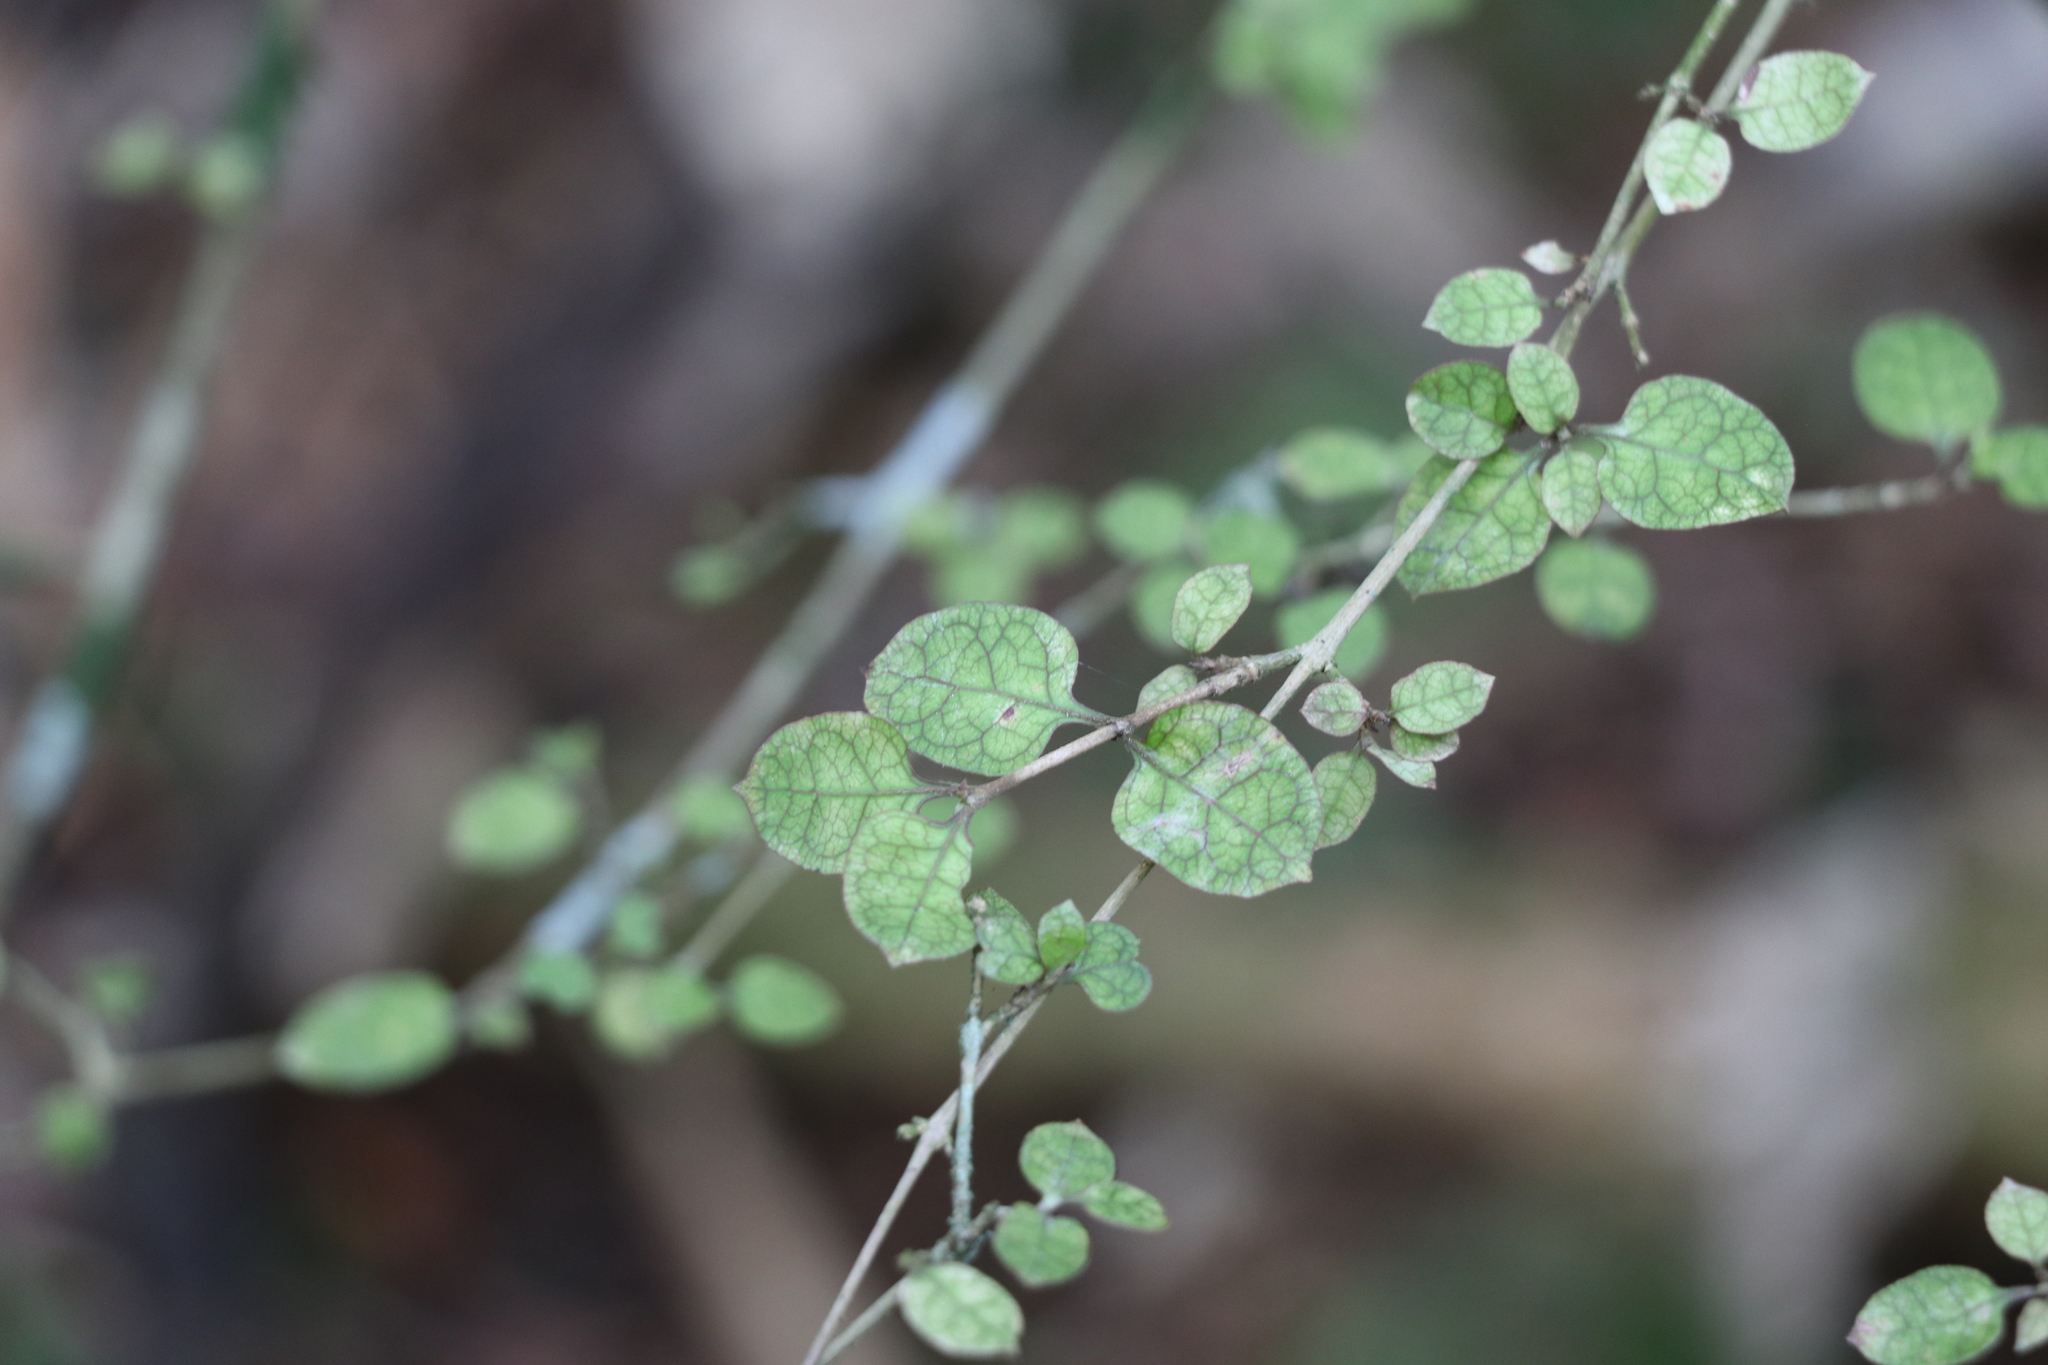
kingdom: Plantae
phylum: Tracheophyta
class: Magnoliopsida
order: Gentianales
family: Rubiaceae
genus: Coprosma
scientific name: Coprosma areolata
